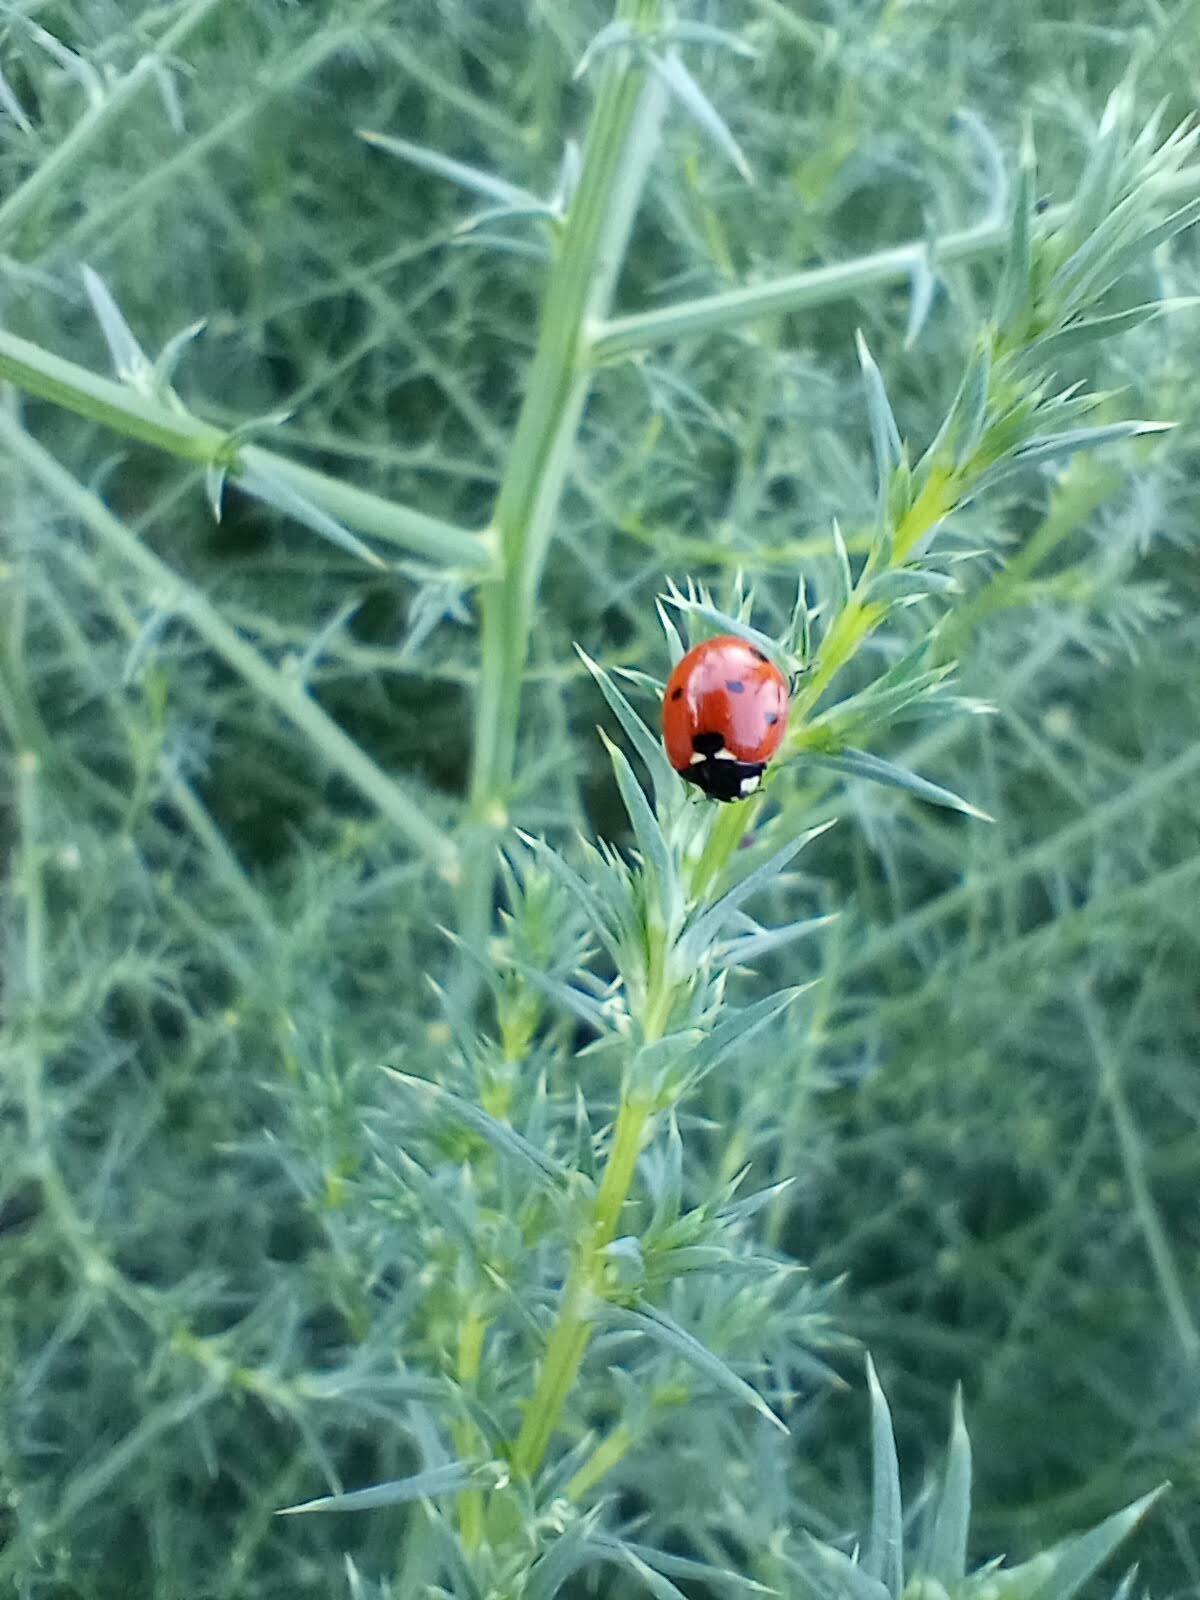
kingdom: Animalia
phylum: Arthropoda
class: Insecta
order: Coleoptera
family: Coccinellidae
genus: Coccinella
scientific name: Coccinella septempunctata
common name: Sevenspotted lady beetle
